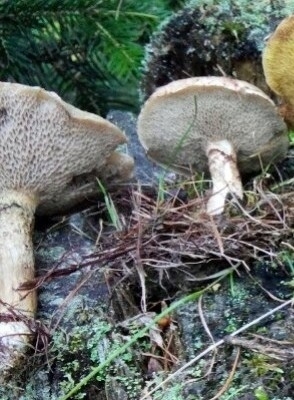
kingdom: Fungi
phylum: Basidiomycota
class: Agaricomycetes
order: Boletales
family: Suillaceae
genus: Suillus
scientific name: Suillus viscidus
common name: Sticky bolete
